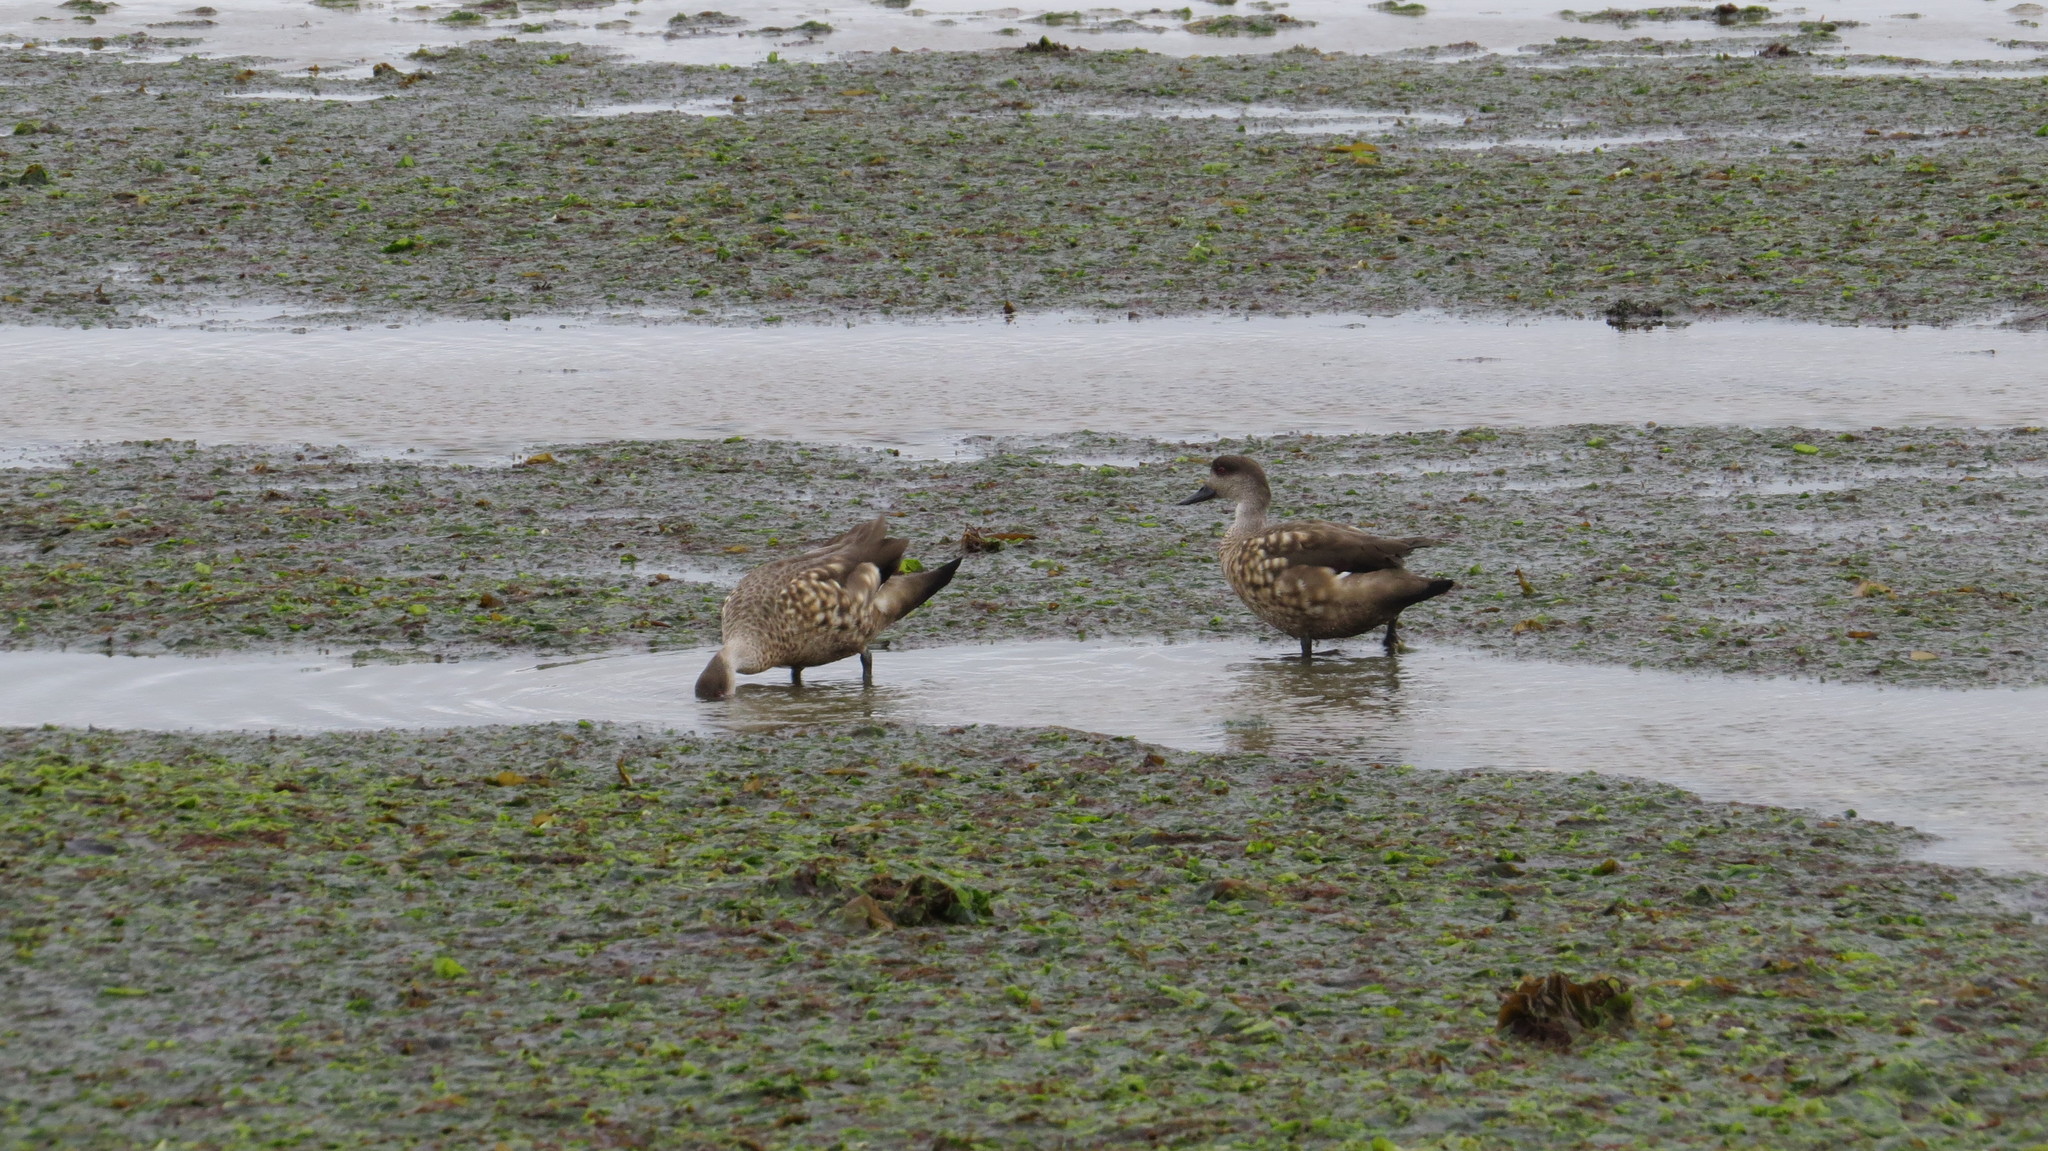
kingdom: Animalia
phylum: Chordata
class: Aves
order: Anseriformes
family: Anatidae
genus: Lophonetta
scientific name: Lophonetta specularioides
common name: Crested duck
